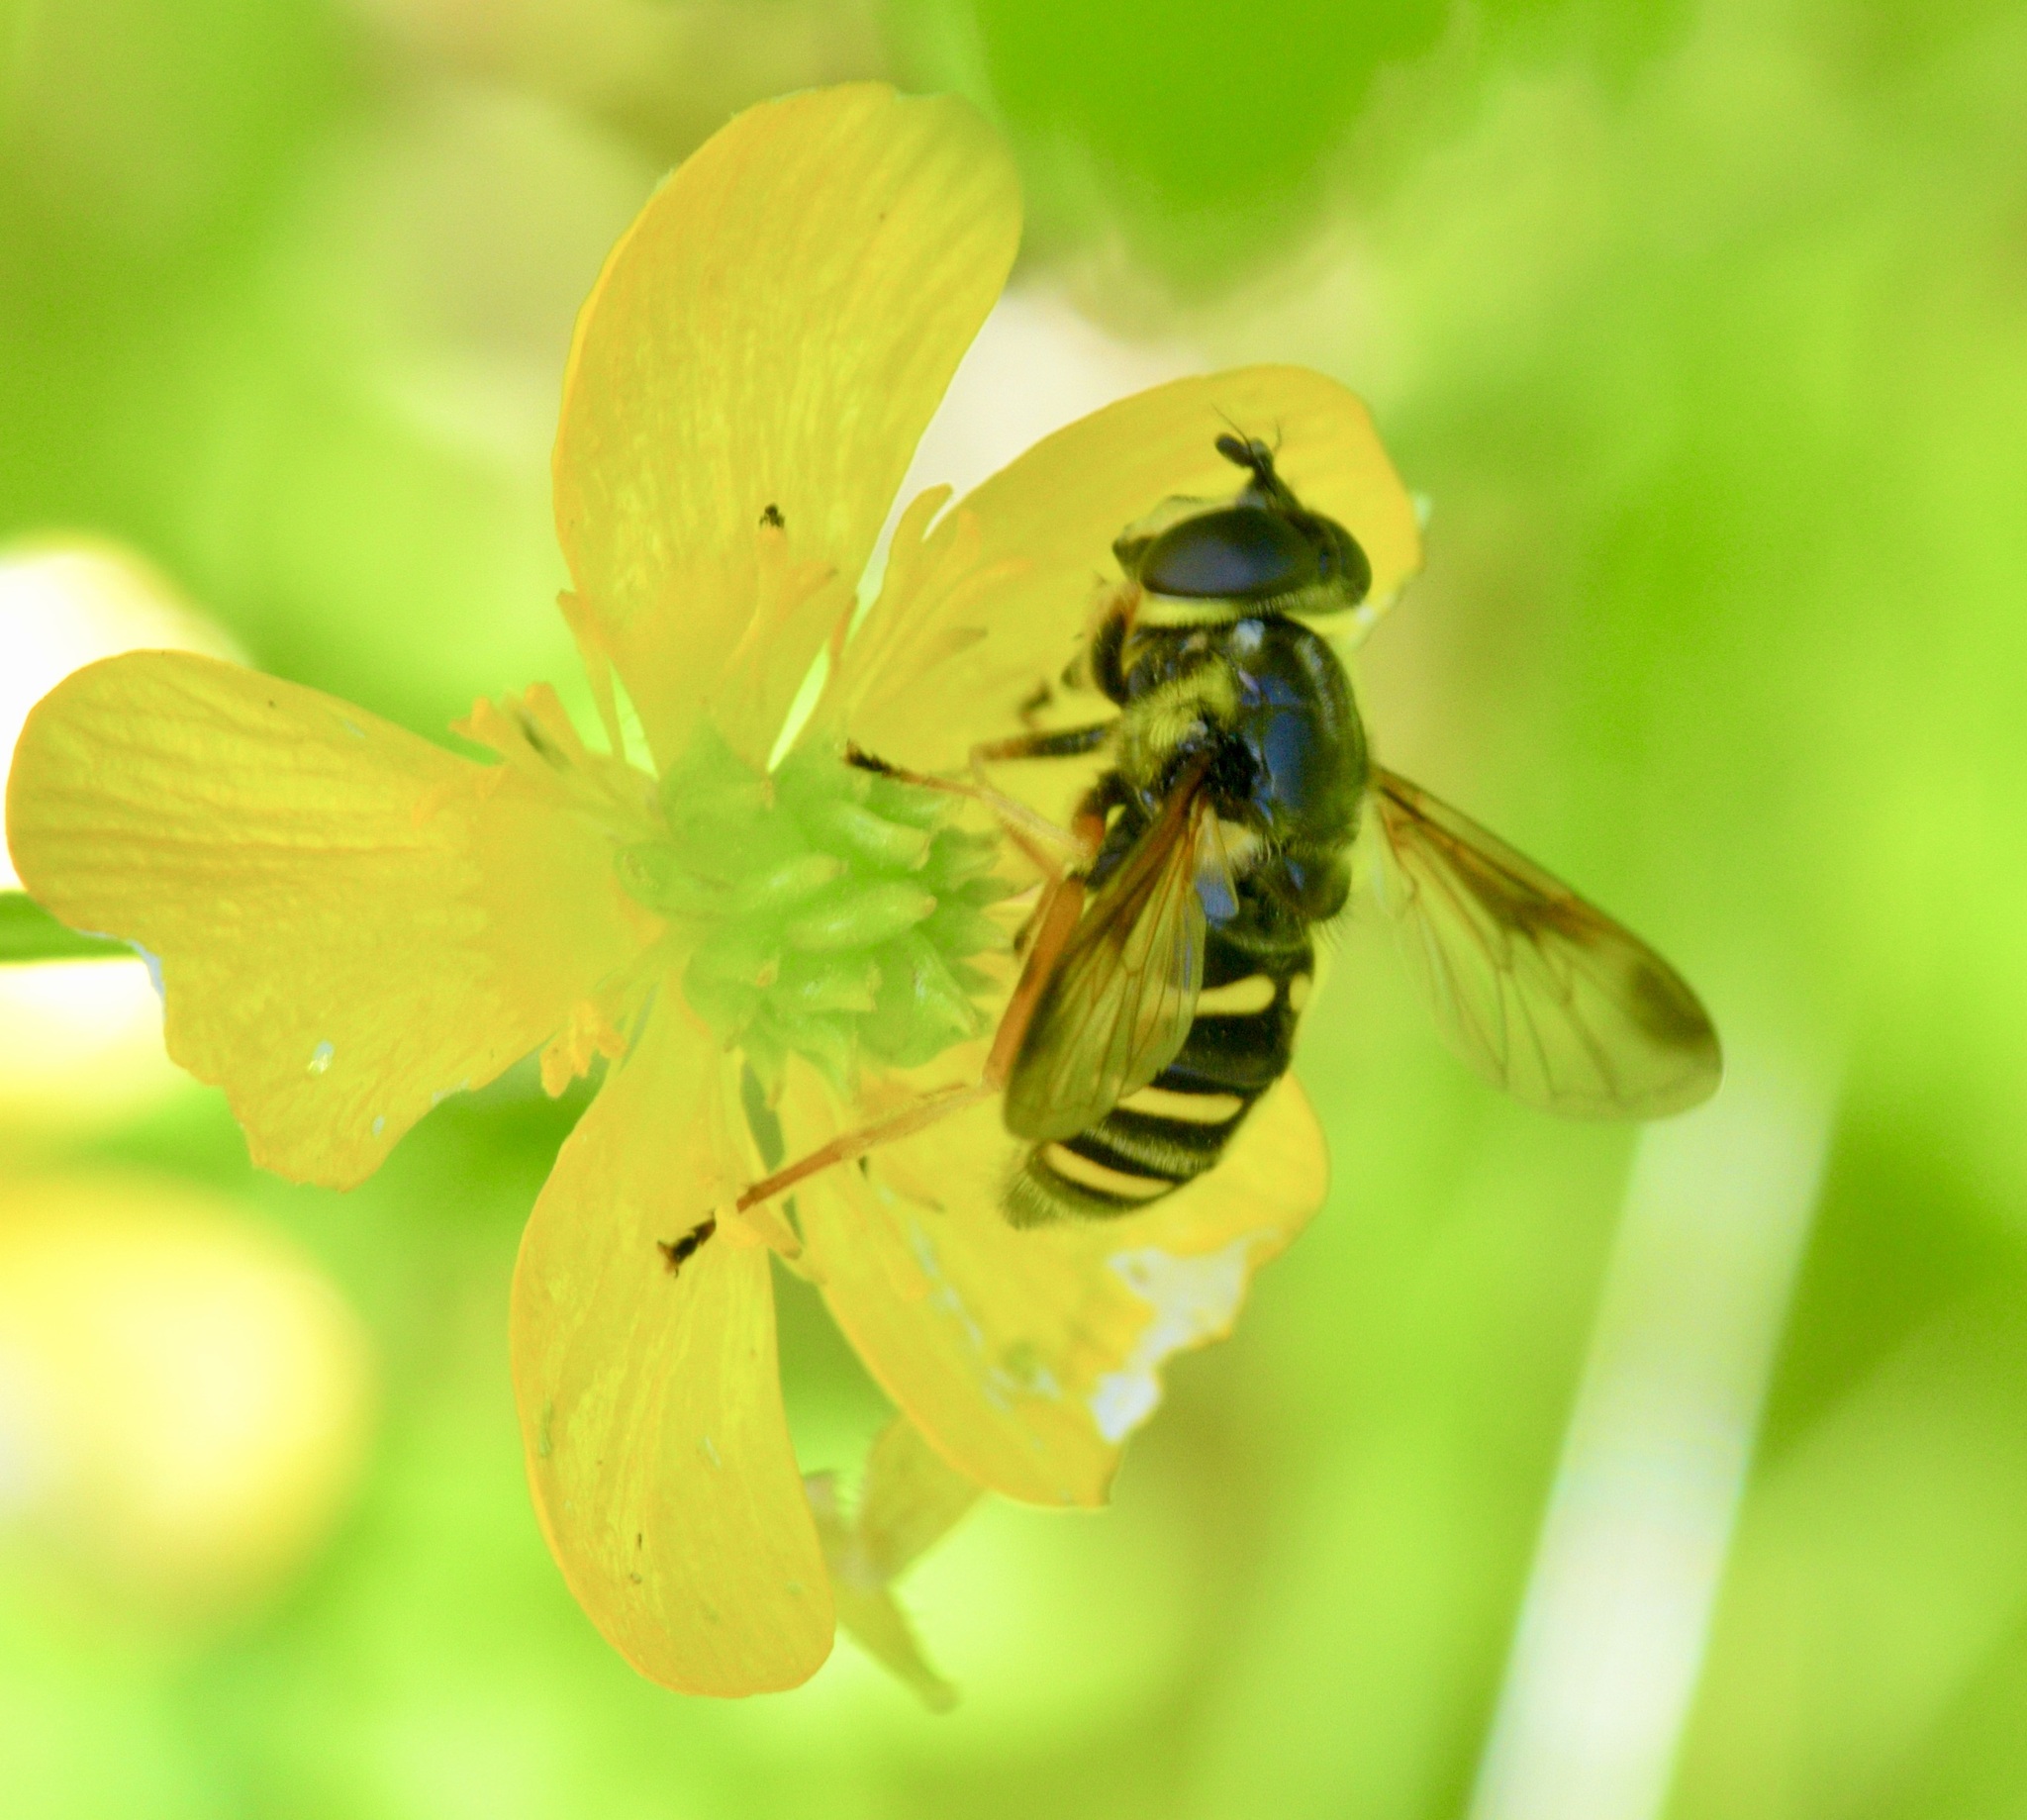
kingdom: Animalia
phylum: Arthropoda
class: Insecta
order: Diptera
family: Syrphidae
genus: Sericomyia
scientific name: Sericomyia chrysotoxoides
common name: Oblique-banded pond fly
